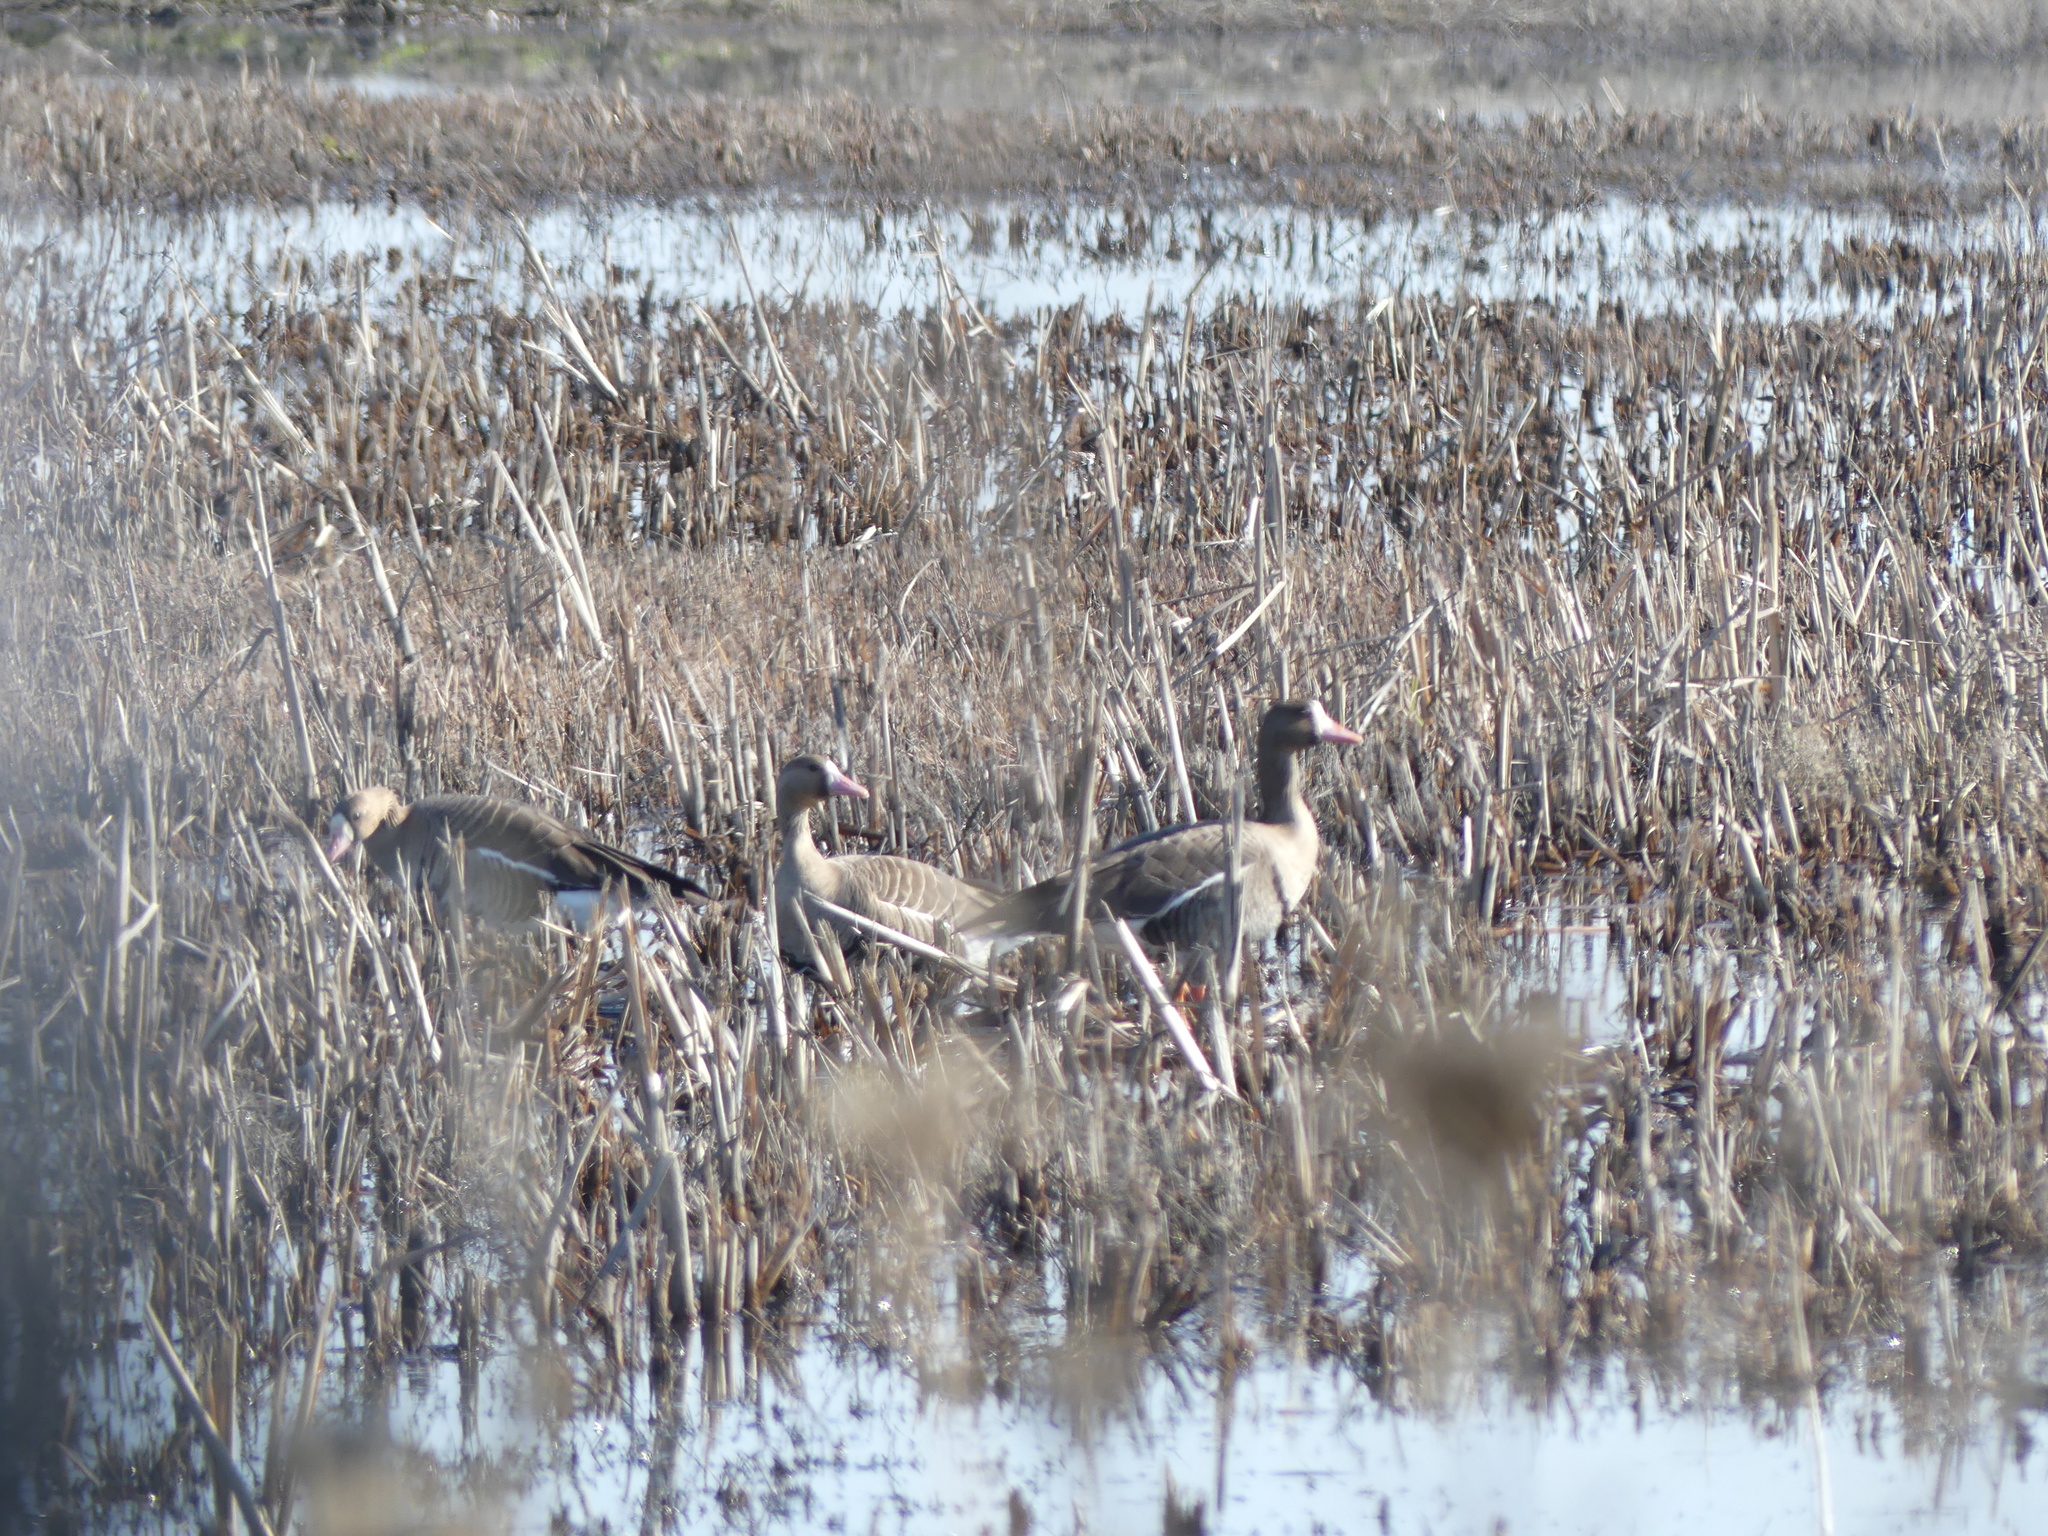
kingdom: Animalia
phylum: Chordata
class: Aves
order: Anseriformes
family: Anatidae
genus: Anser
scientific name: Anser albifrons
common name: Greater white-fronted goose
